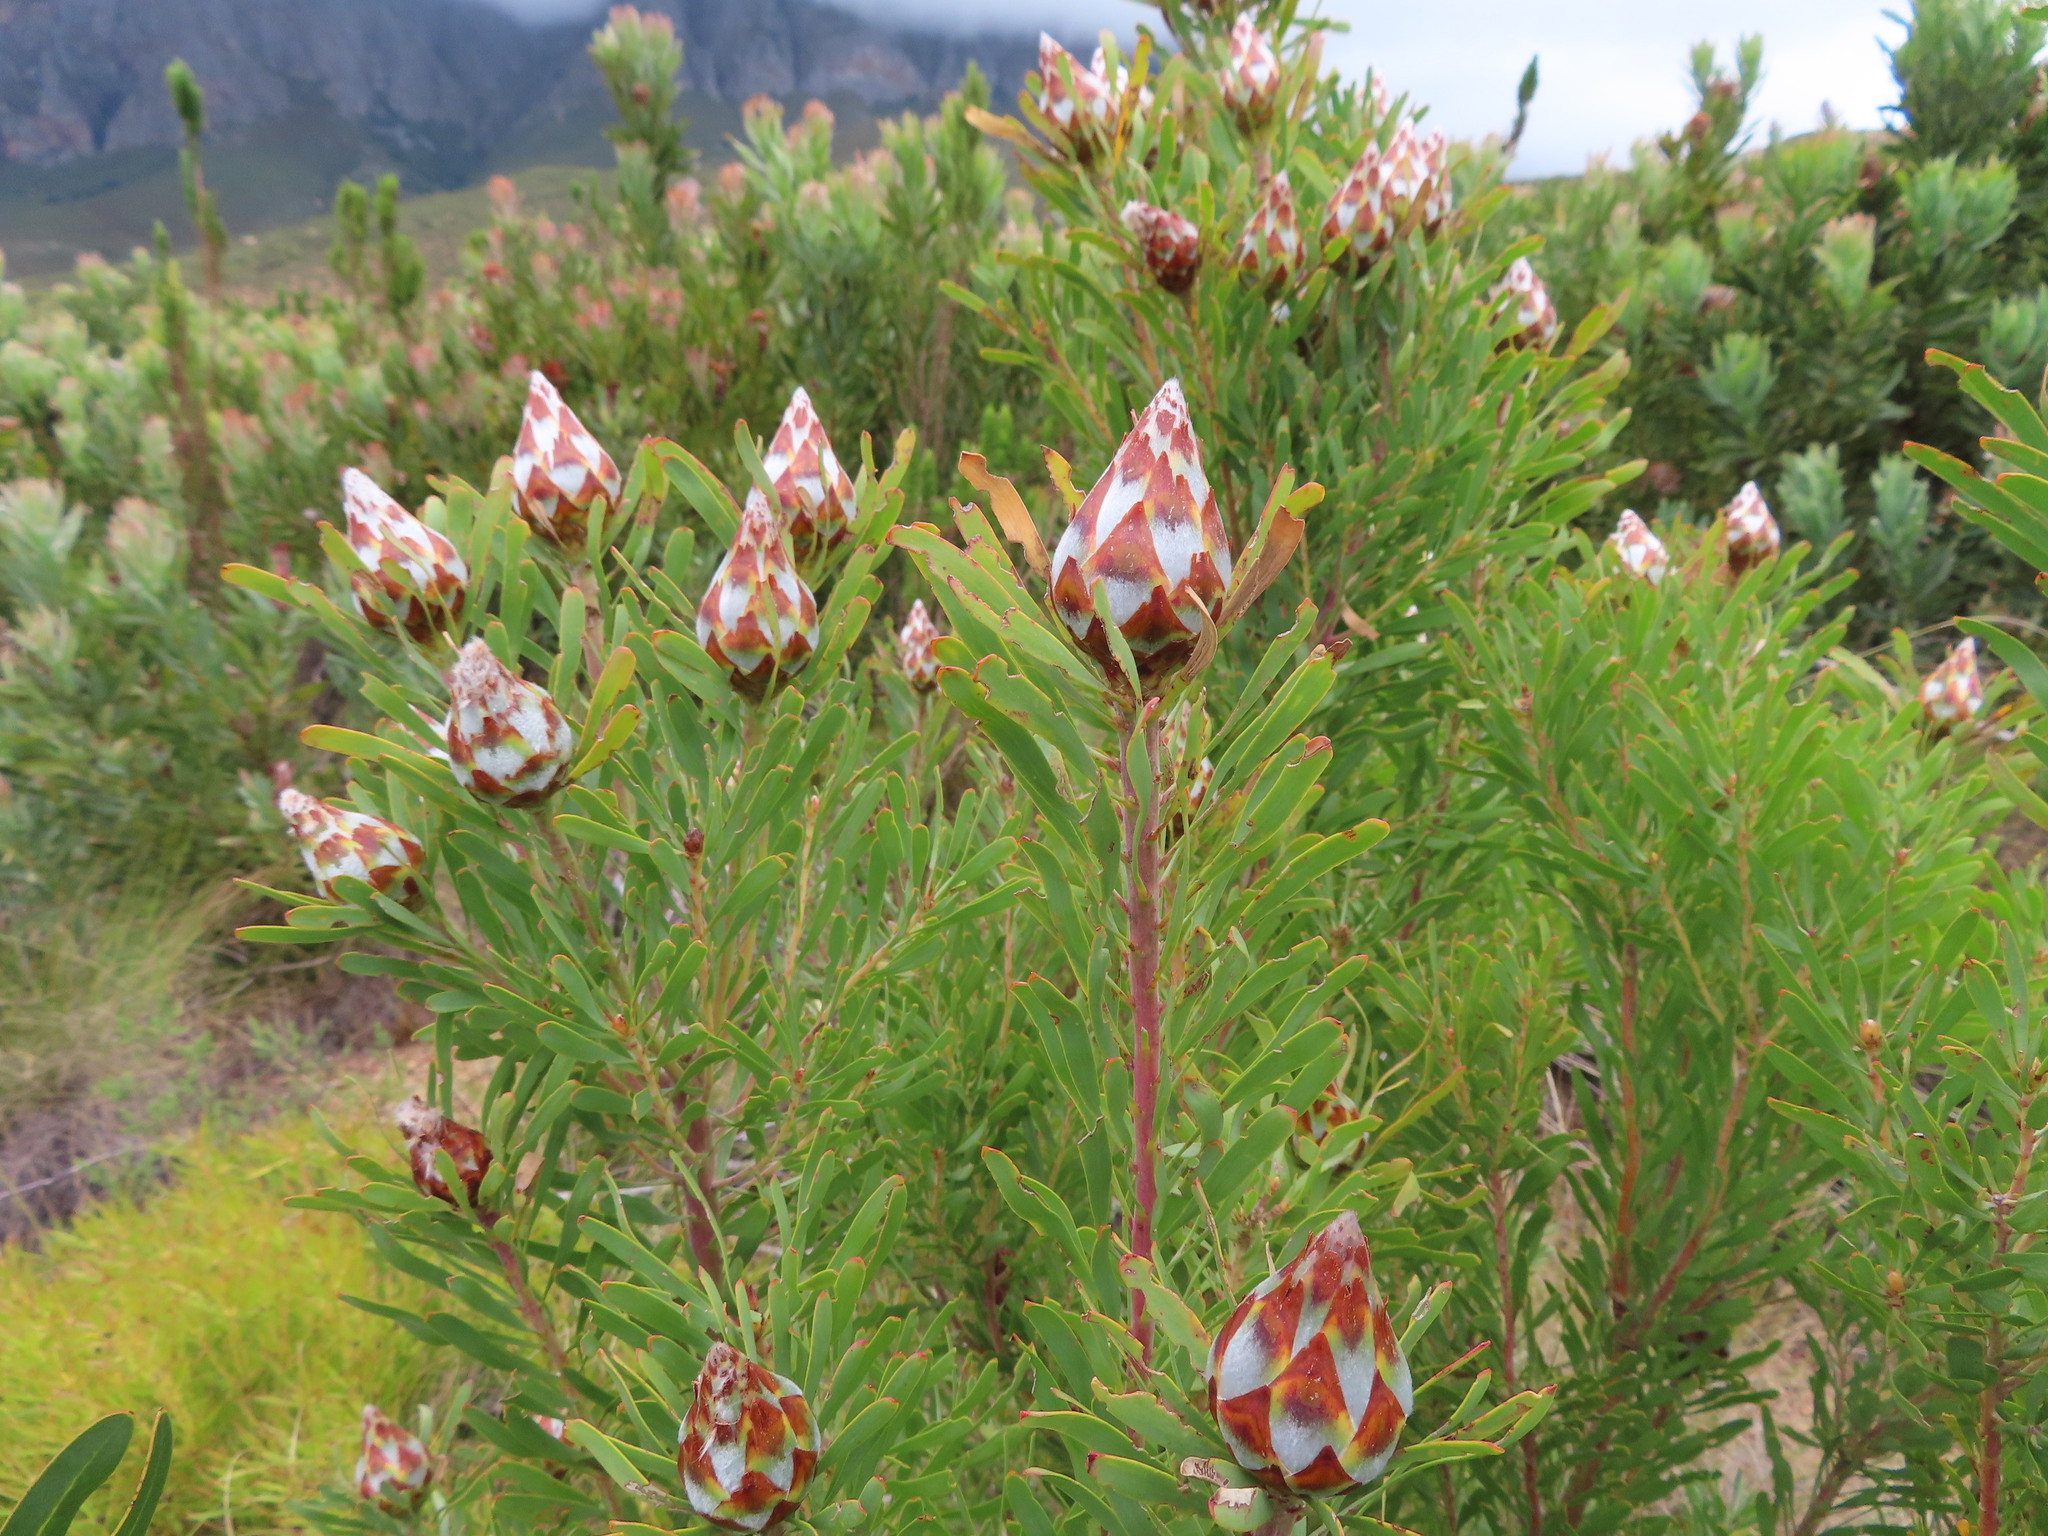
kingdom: Plantae
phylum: Tracheophyta
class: Magnoliopsida
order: Proteales
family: Proteaceae
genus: Leucadendron
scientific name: Leucadendron rubrum
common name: Spinning top
